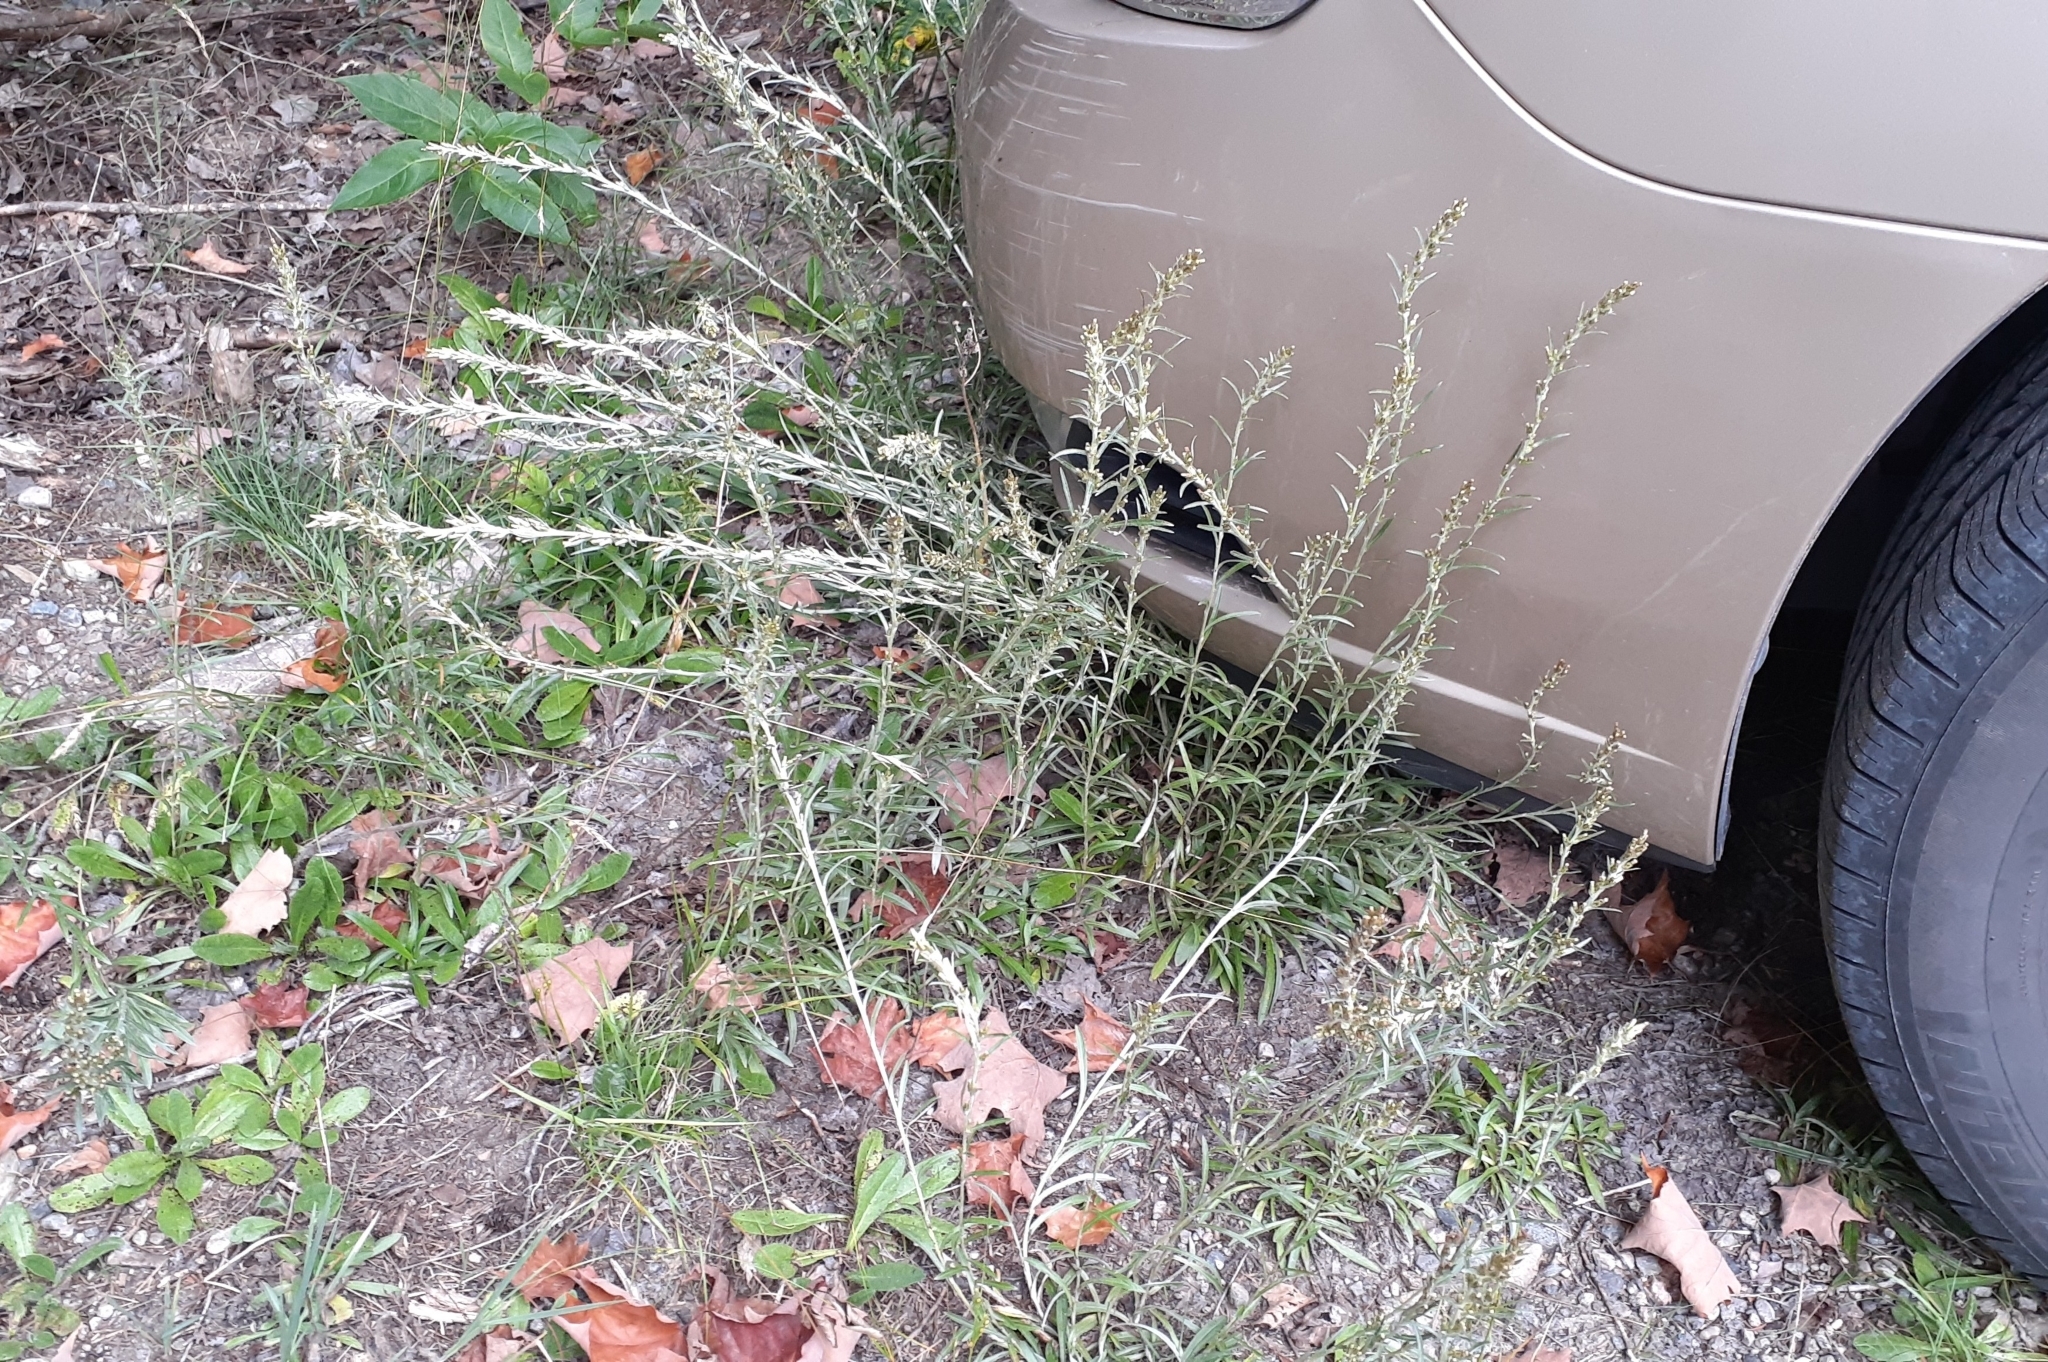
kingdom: Plantae
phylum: Tracheophyta
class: Magnoliopsida
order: Asterales
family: Asteraceae
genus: Omalotheca
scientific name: Omalotheca sylvatica
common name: Heath cudweed
